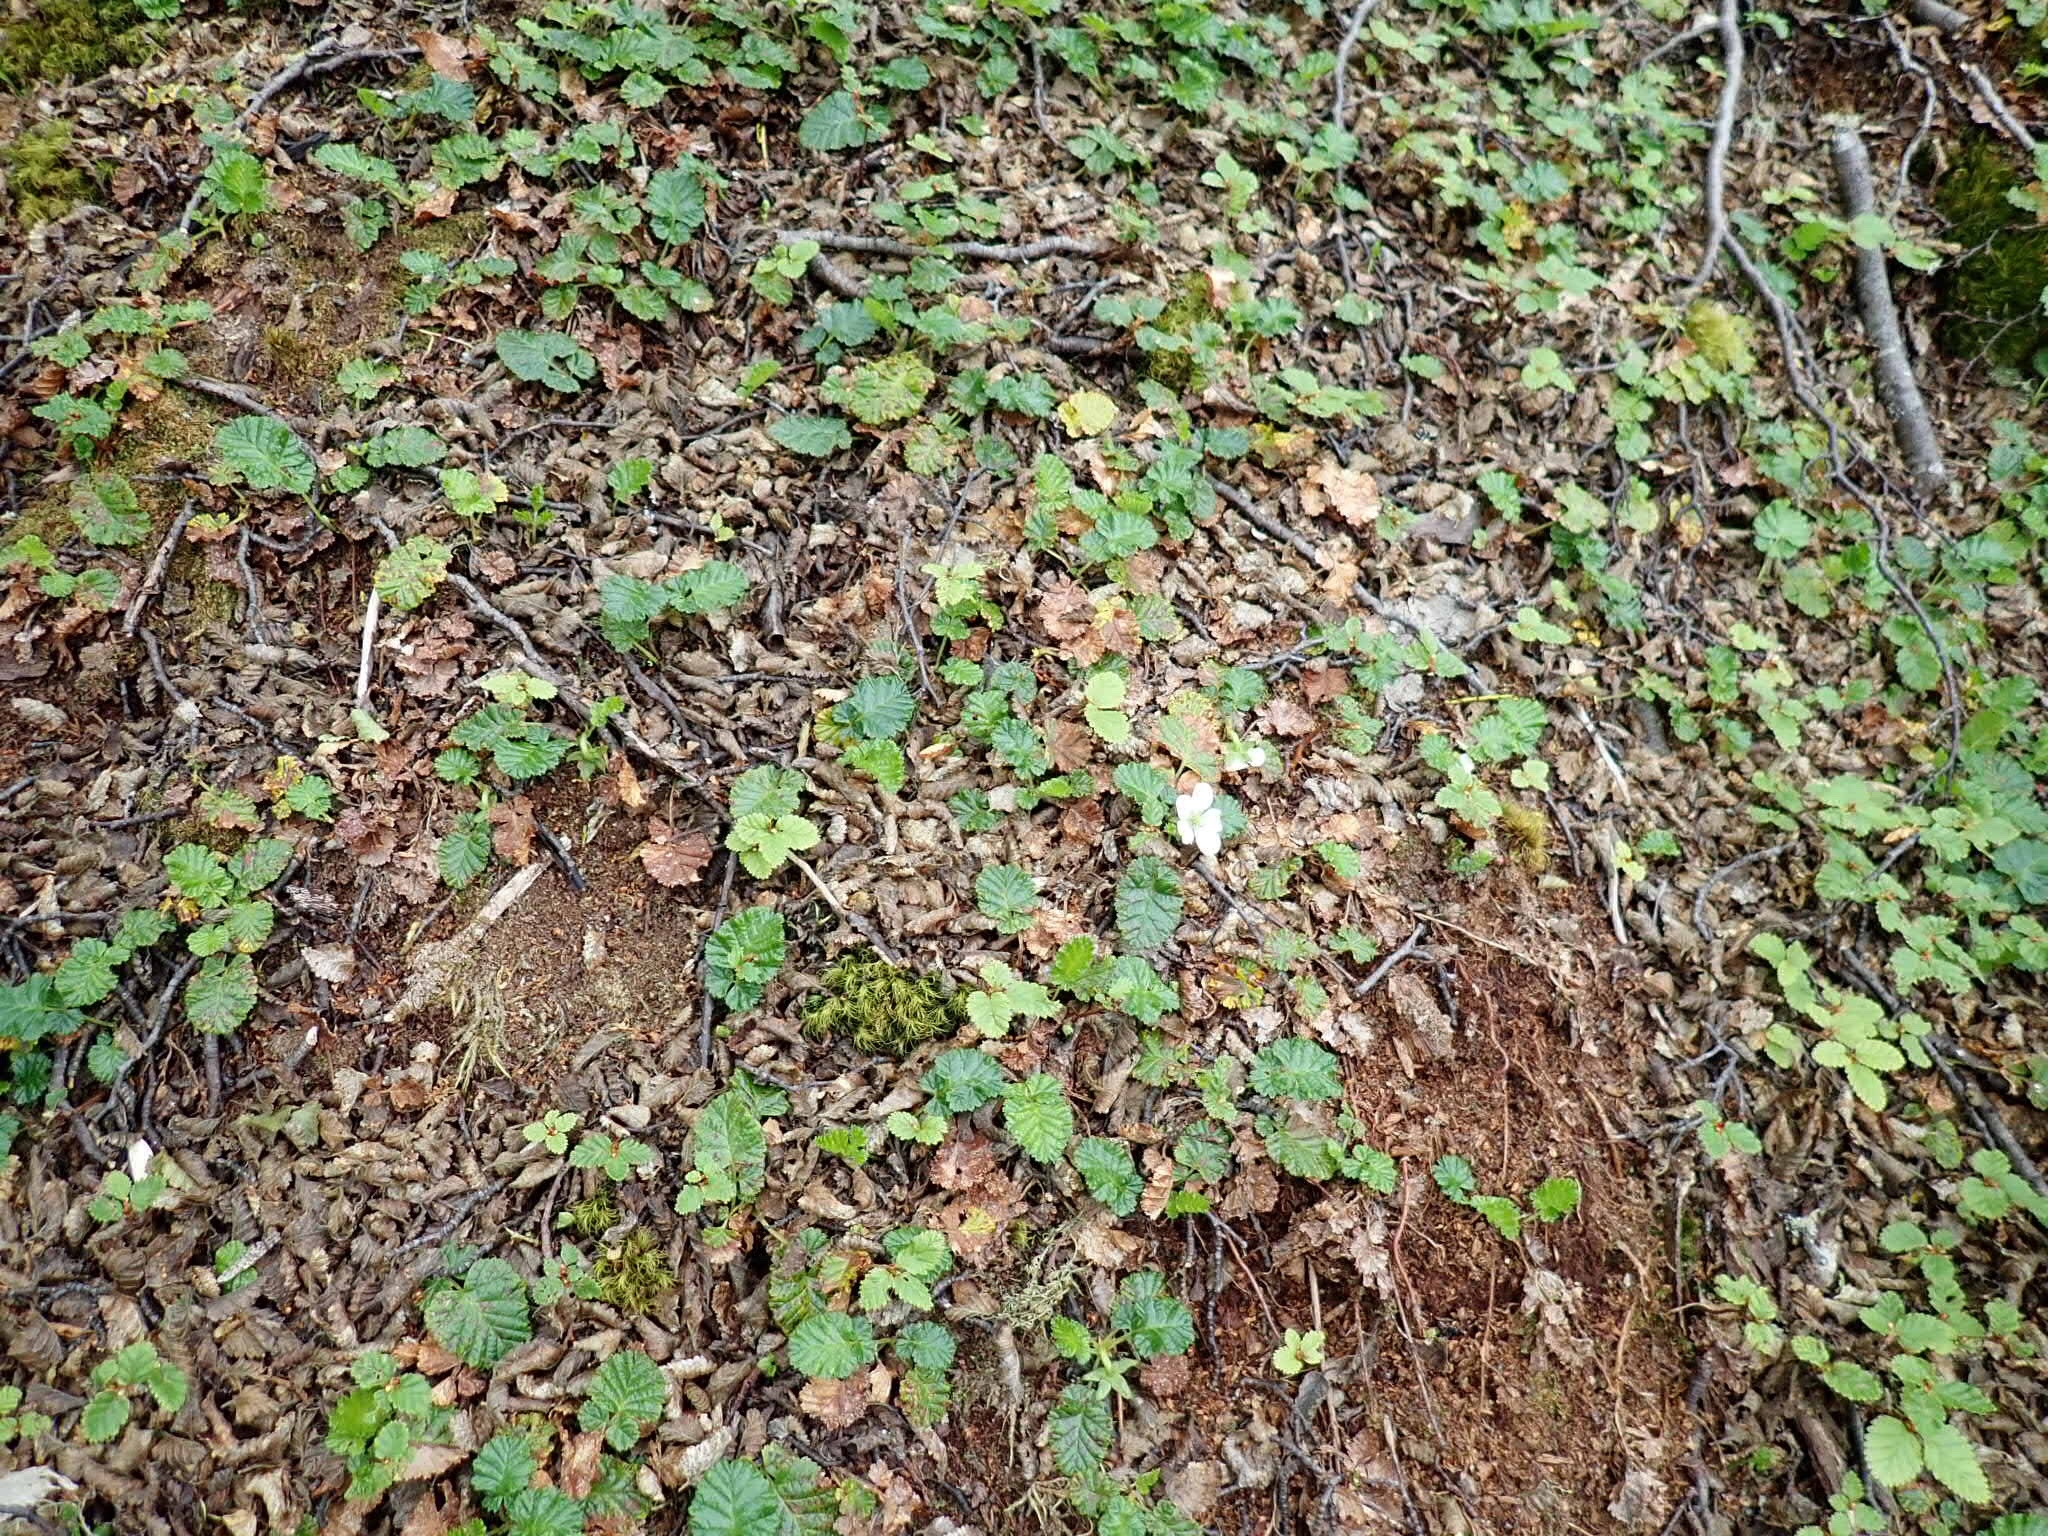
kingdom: Plantae
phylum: Tracheophyta
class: Magnoliopsida
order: Rosales
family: Rosaceae
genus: Rubus
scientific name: Rubus geoides
